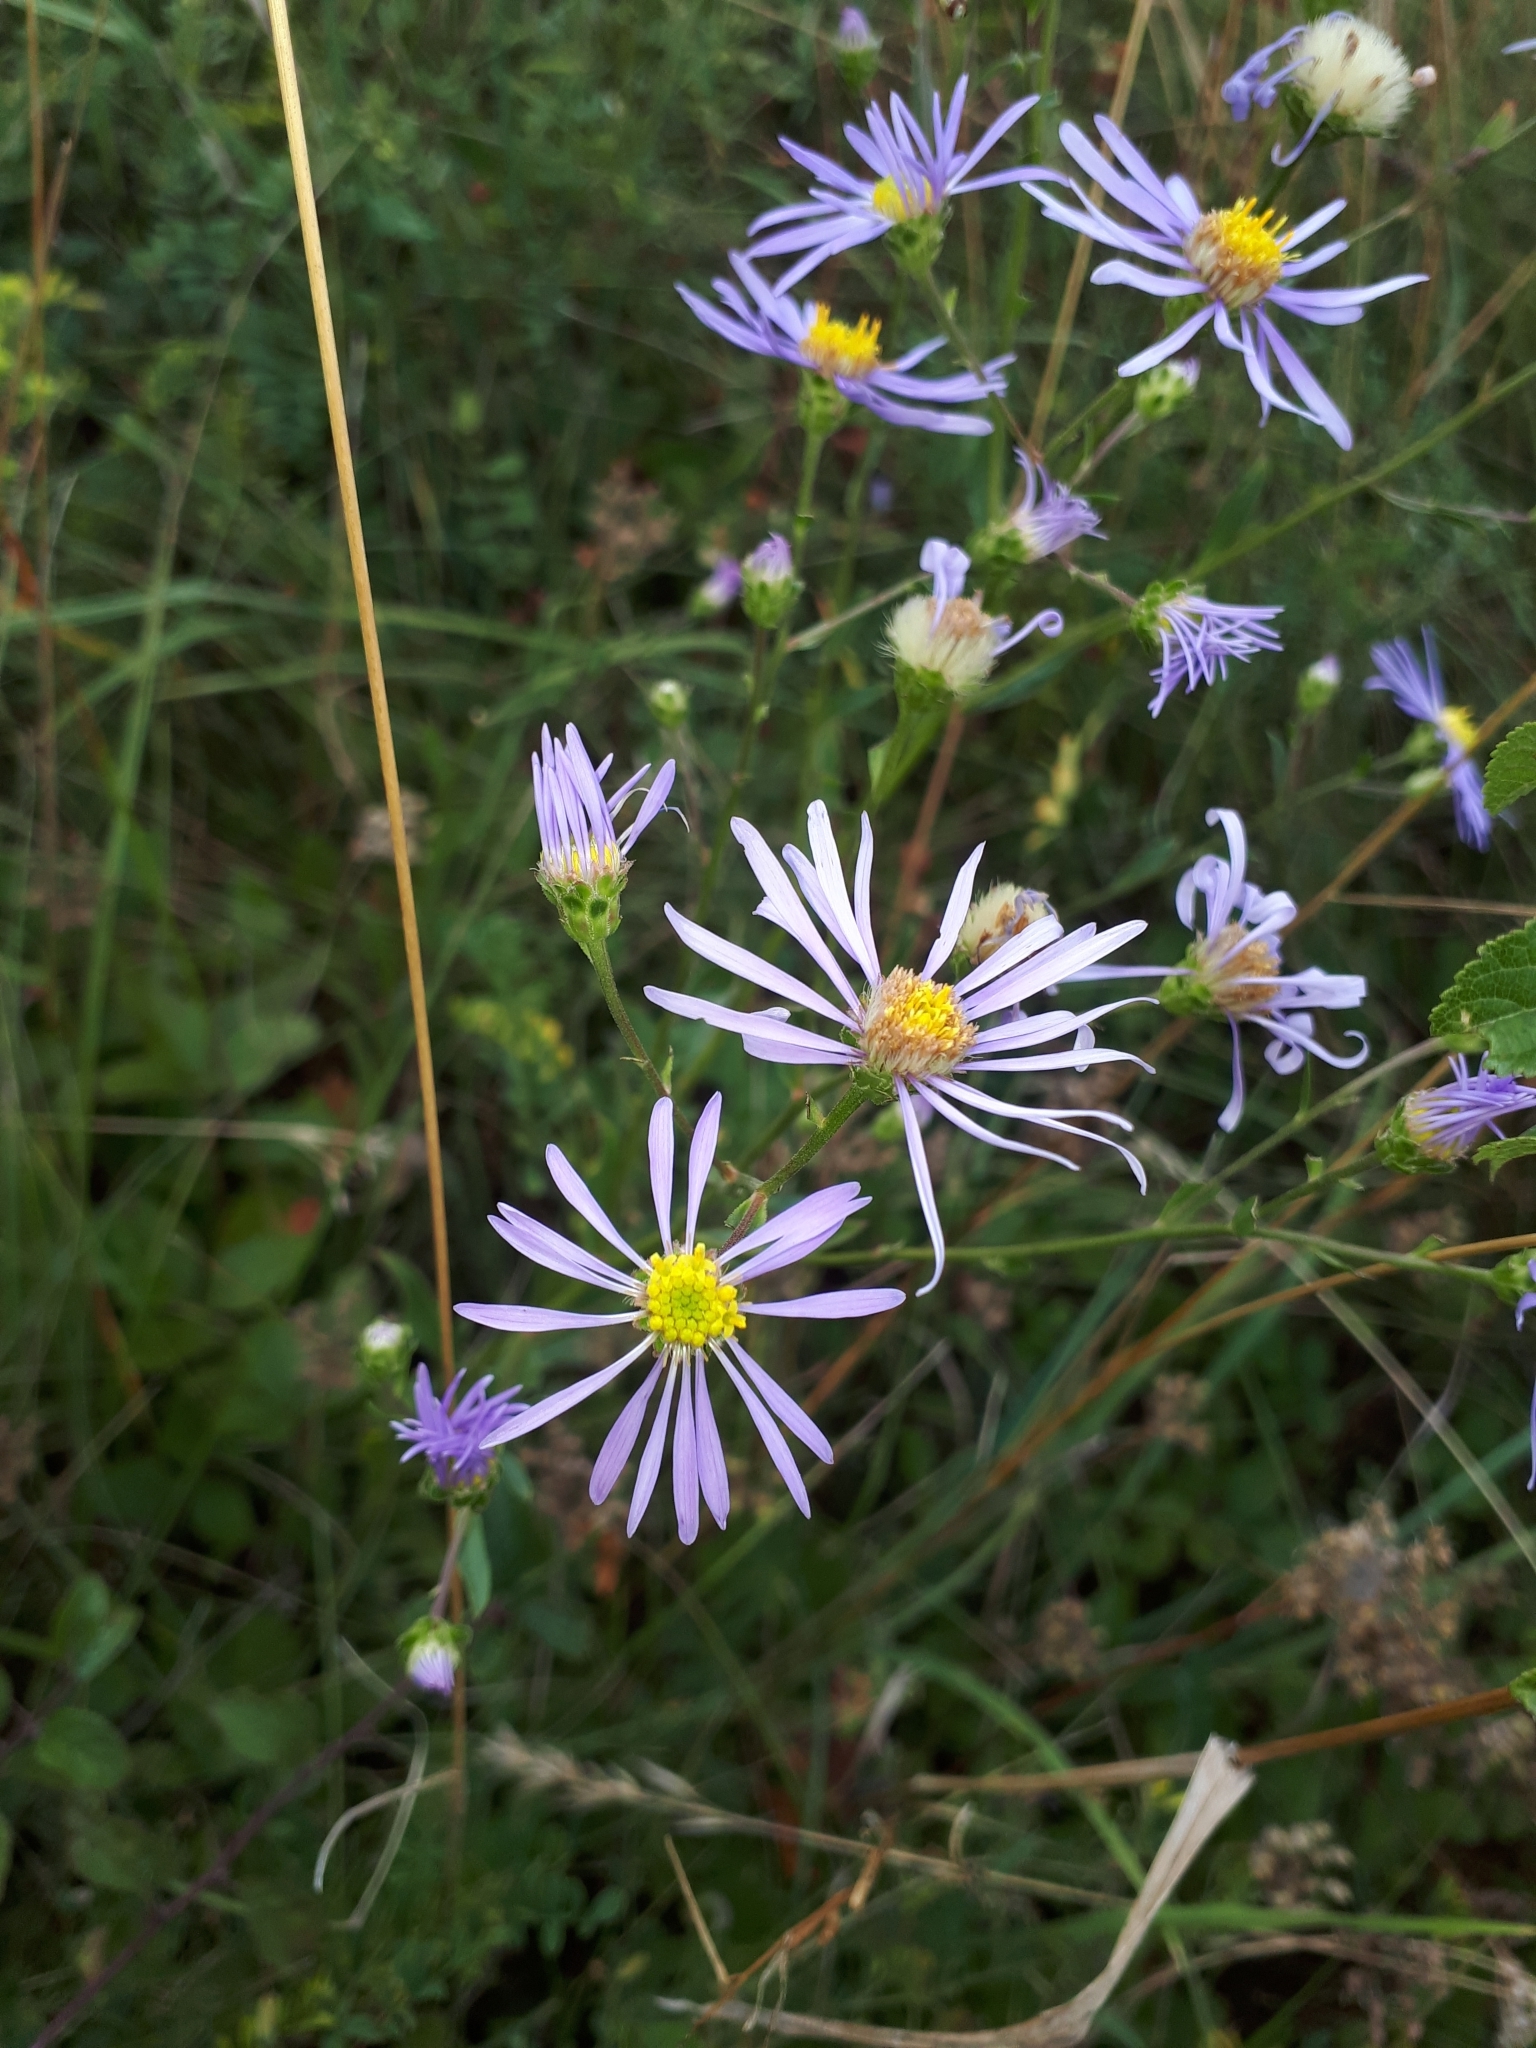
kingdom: Plantae
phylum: Tracheophyta
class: Magnoliopsida
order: Asterales
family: Asteraceae
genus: Aster
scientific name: Aster amellus
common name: European michaelmas daisy
